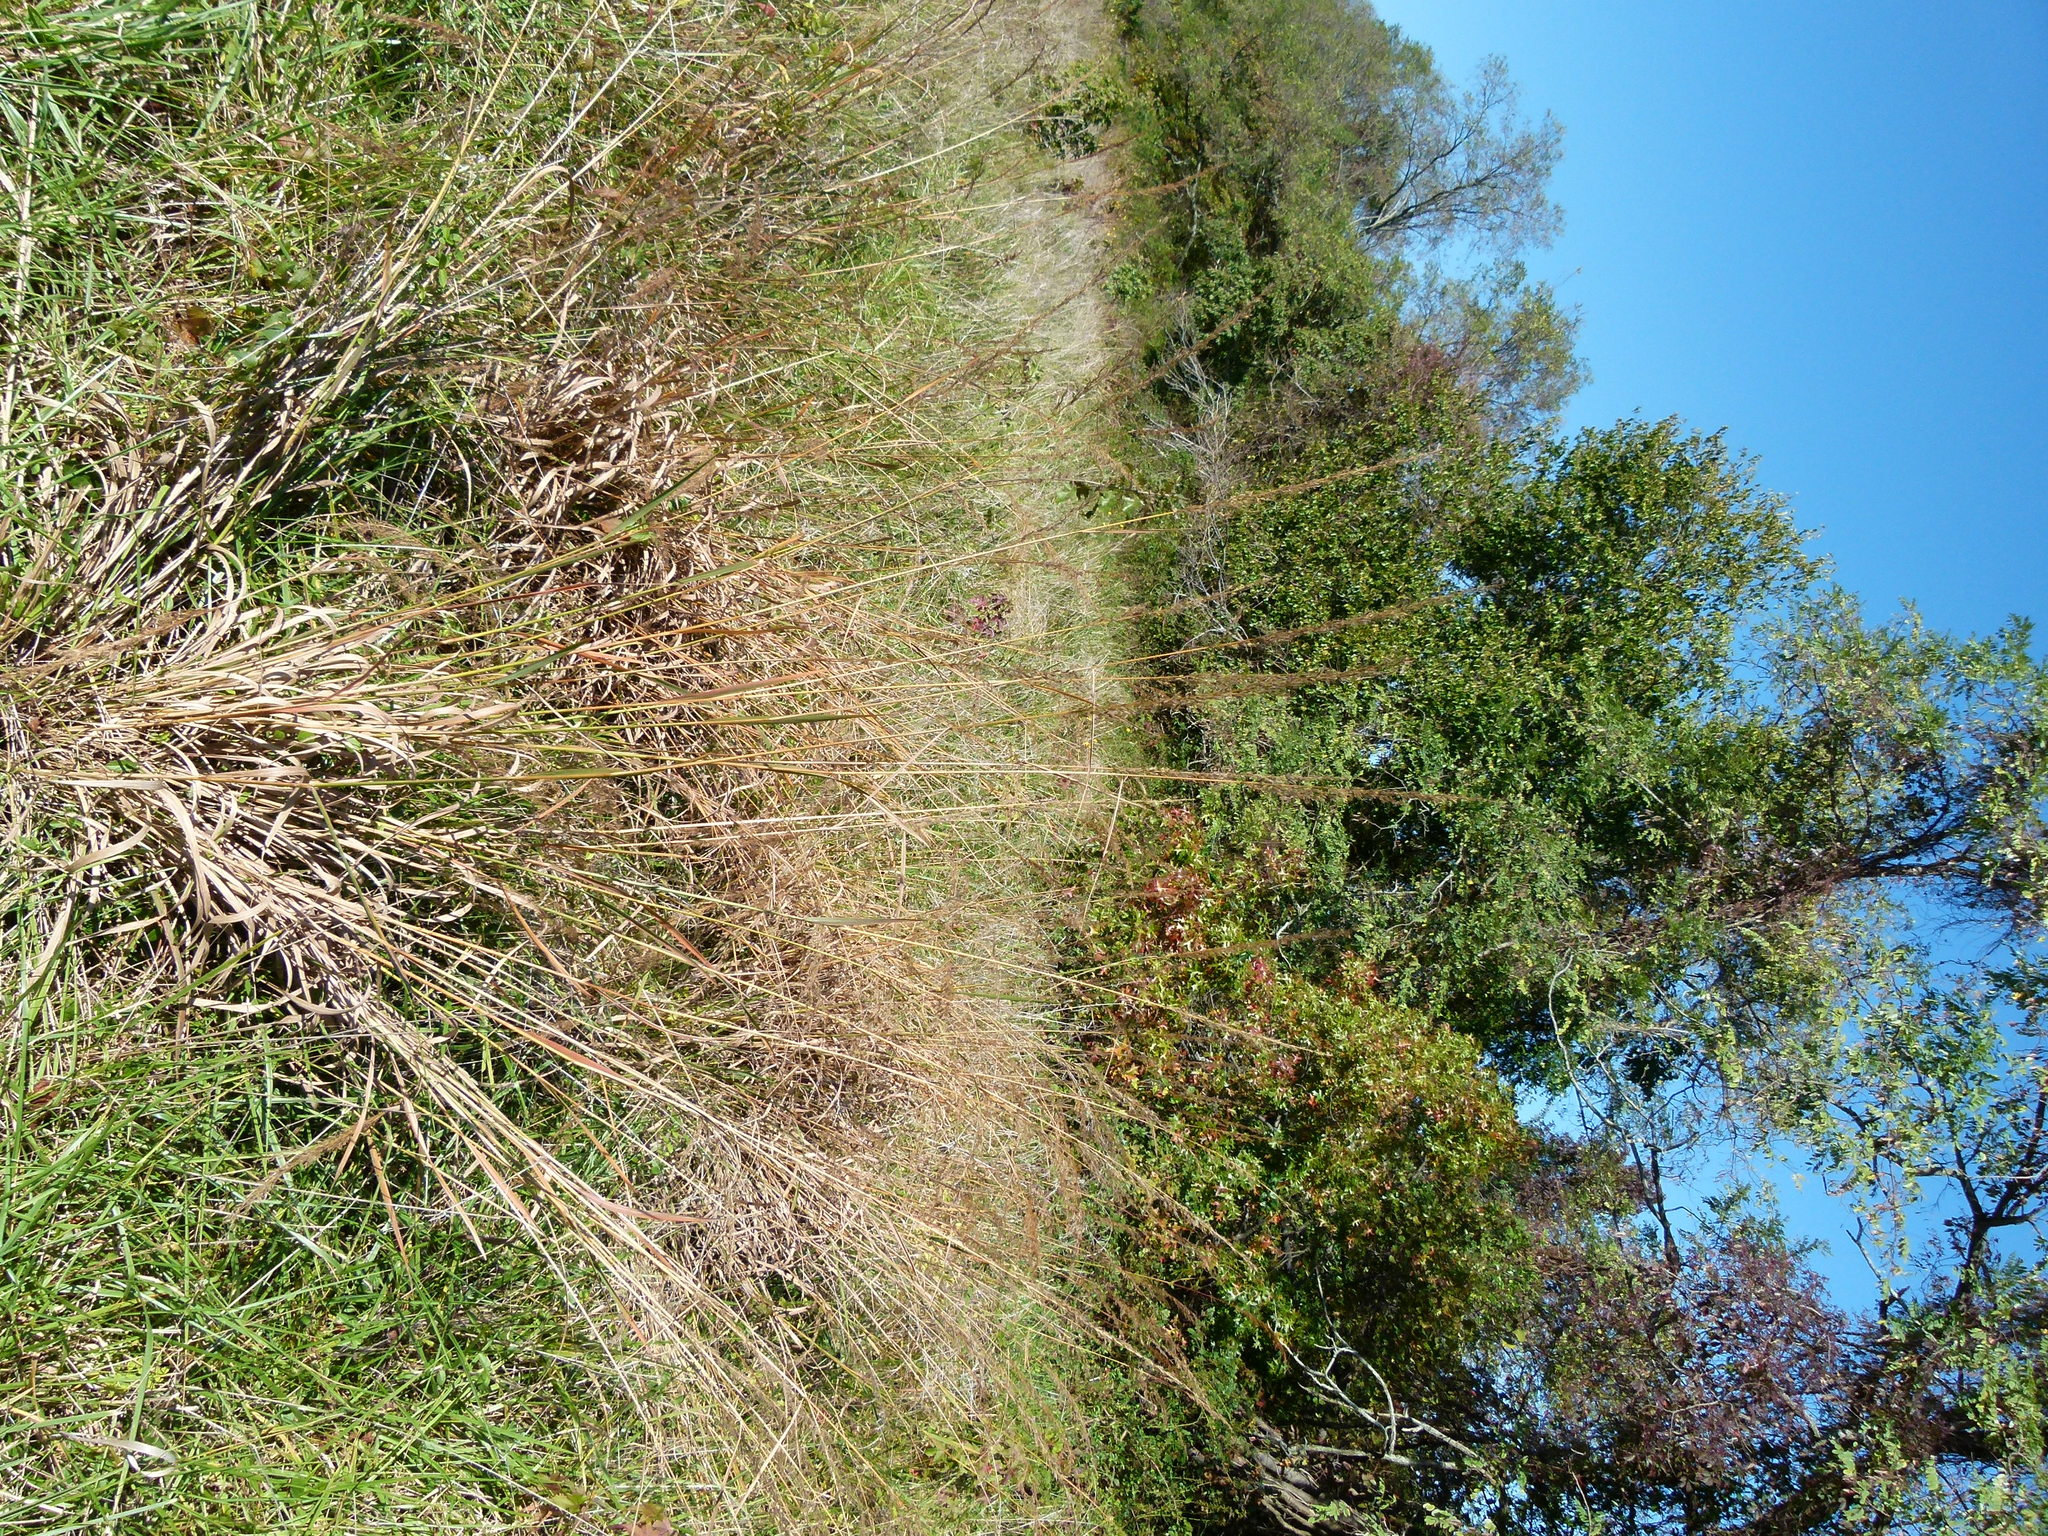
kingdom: Plantae
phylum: Tracheophyta
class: Liliopsida
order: Poales
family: Poaceae
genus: Sorghastrum
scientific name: Sorghastrum nutans
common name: Indian grass
